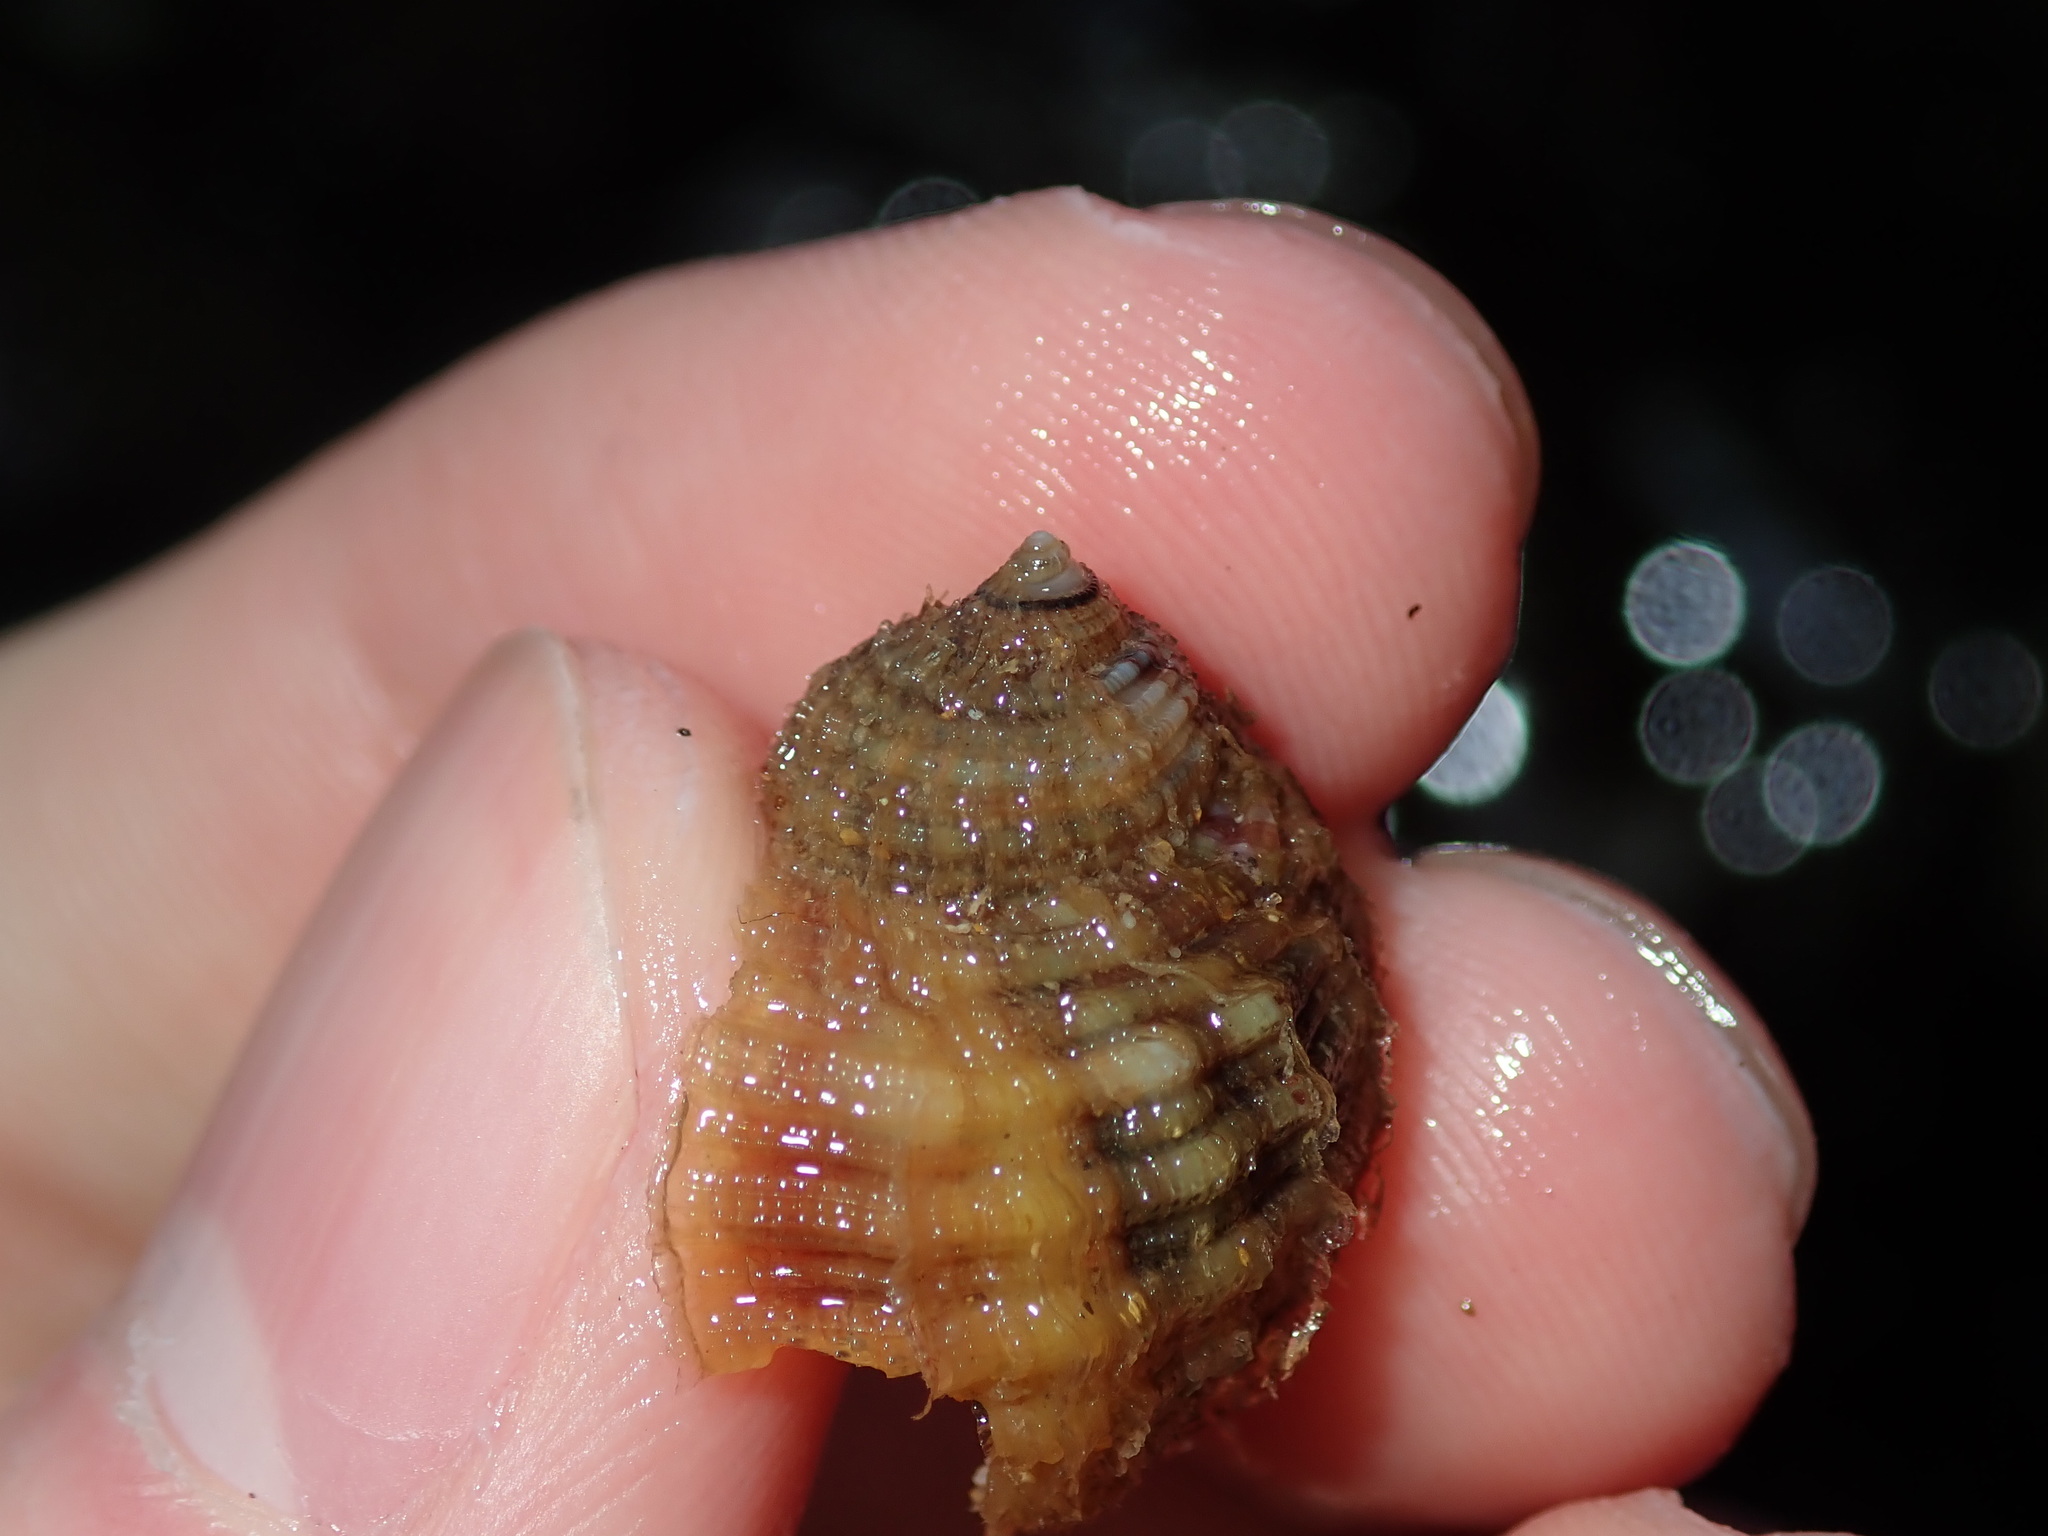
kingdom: Animalia
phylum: Mollusca
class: Gastropoda
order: Littorinimorpha
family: Cymatiidae
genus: Linatella
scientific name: Linatella caudata
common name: Ringed triton
